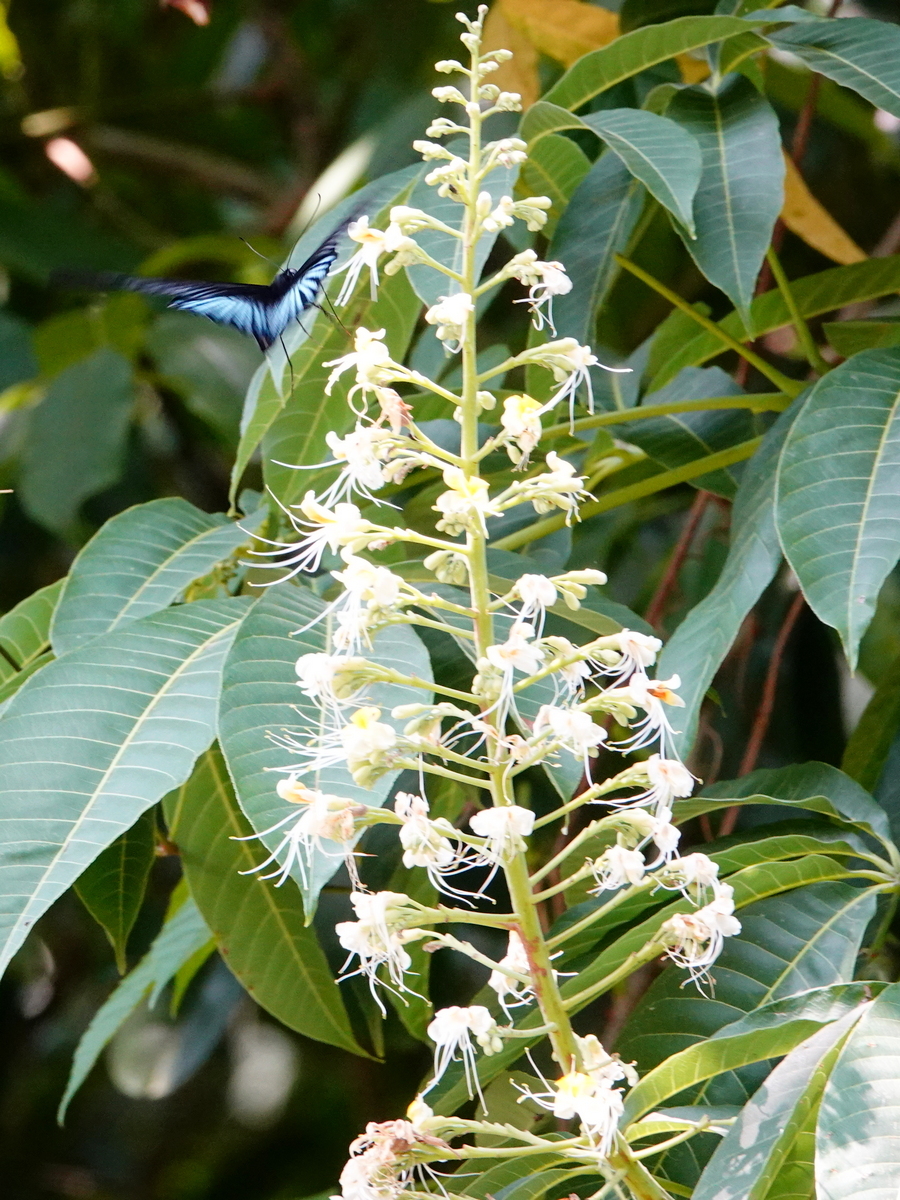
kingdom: Plantae
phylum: Tracheophyta
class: Magnoliopsida
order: Sapindales
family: Sapindaceae
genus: Aesculus
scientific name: Aesculus assamica
